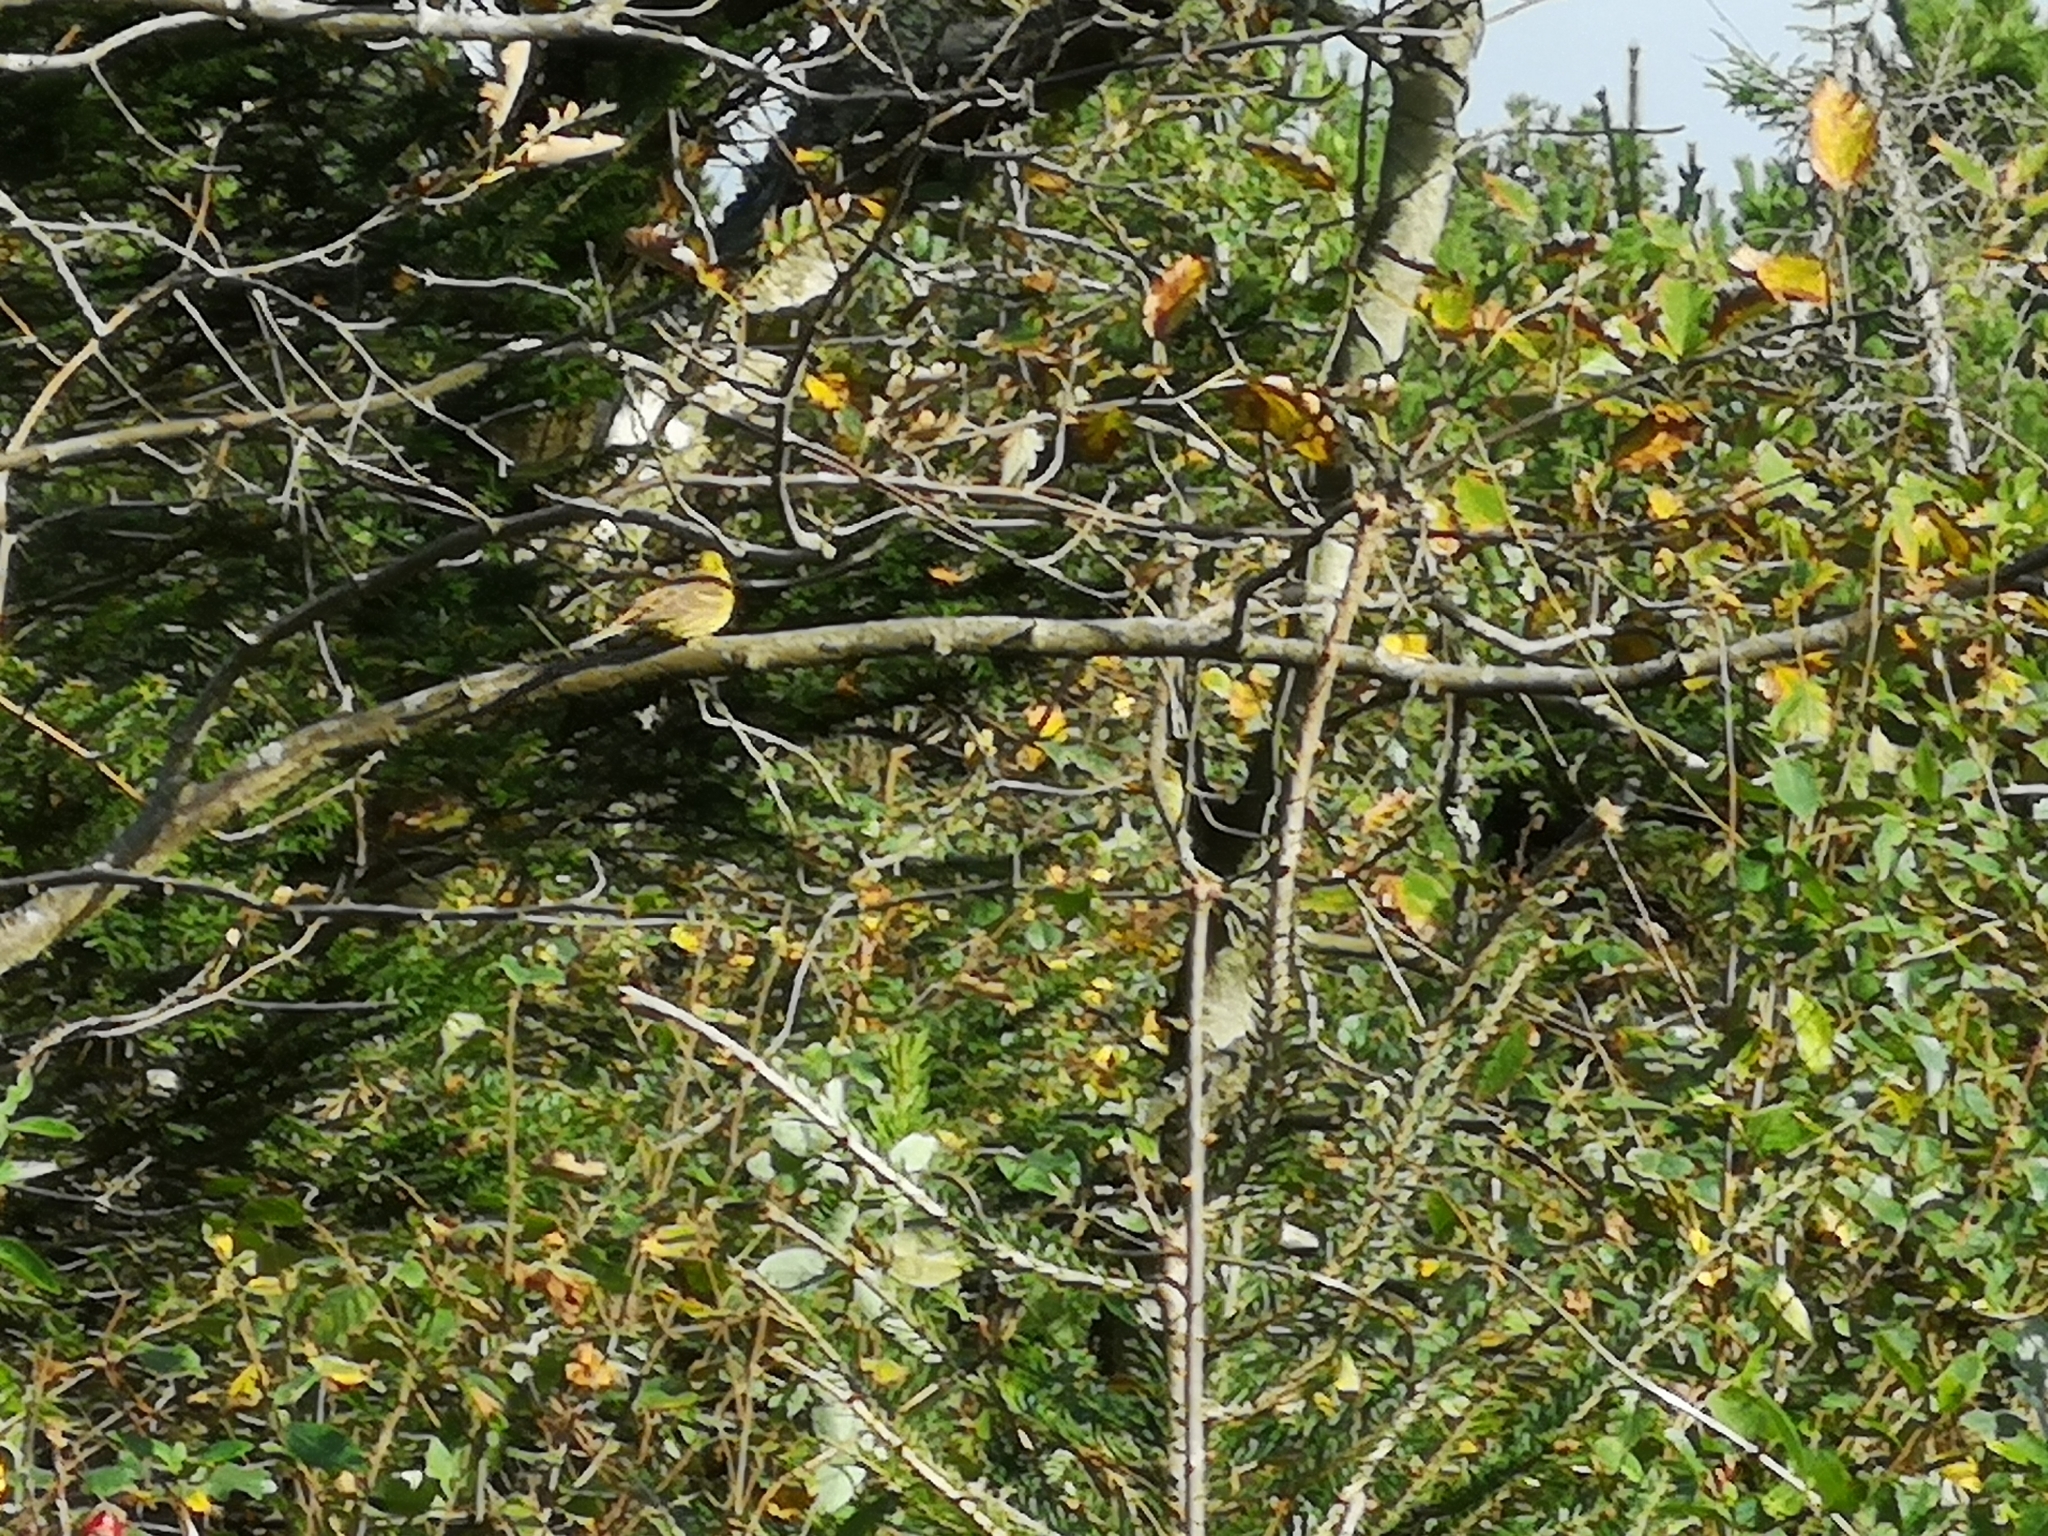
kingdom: Animalia
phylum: Chordata
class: Aves
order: Passeriformes
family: Emberizidae
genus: Emberiza
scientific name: Emberiza citrinella
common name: Yellowhammer
